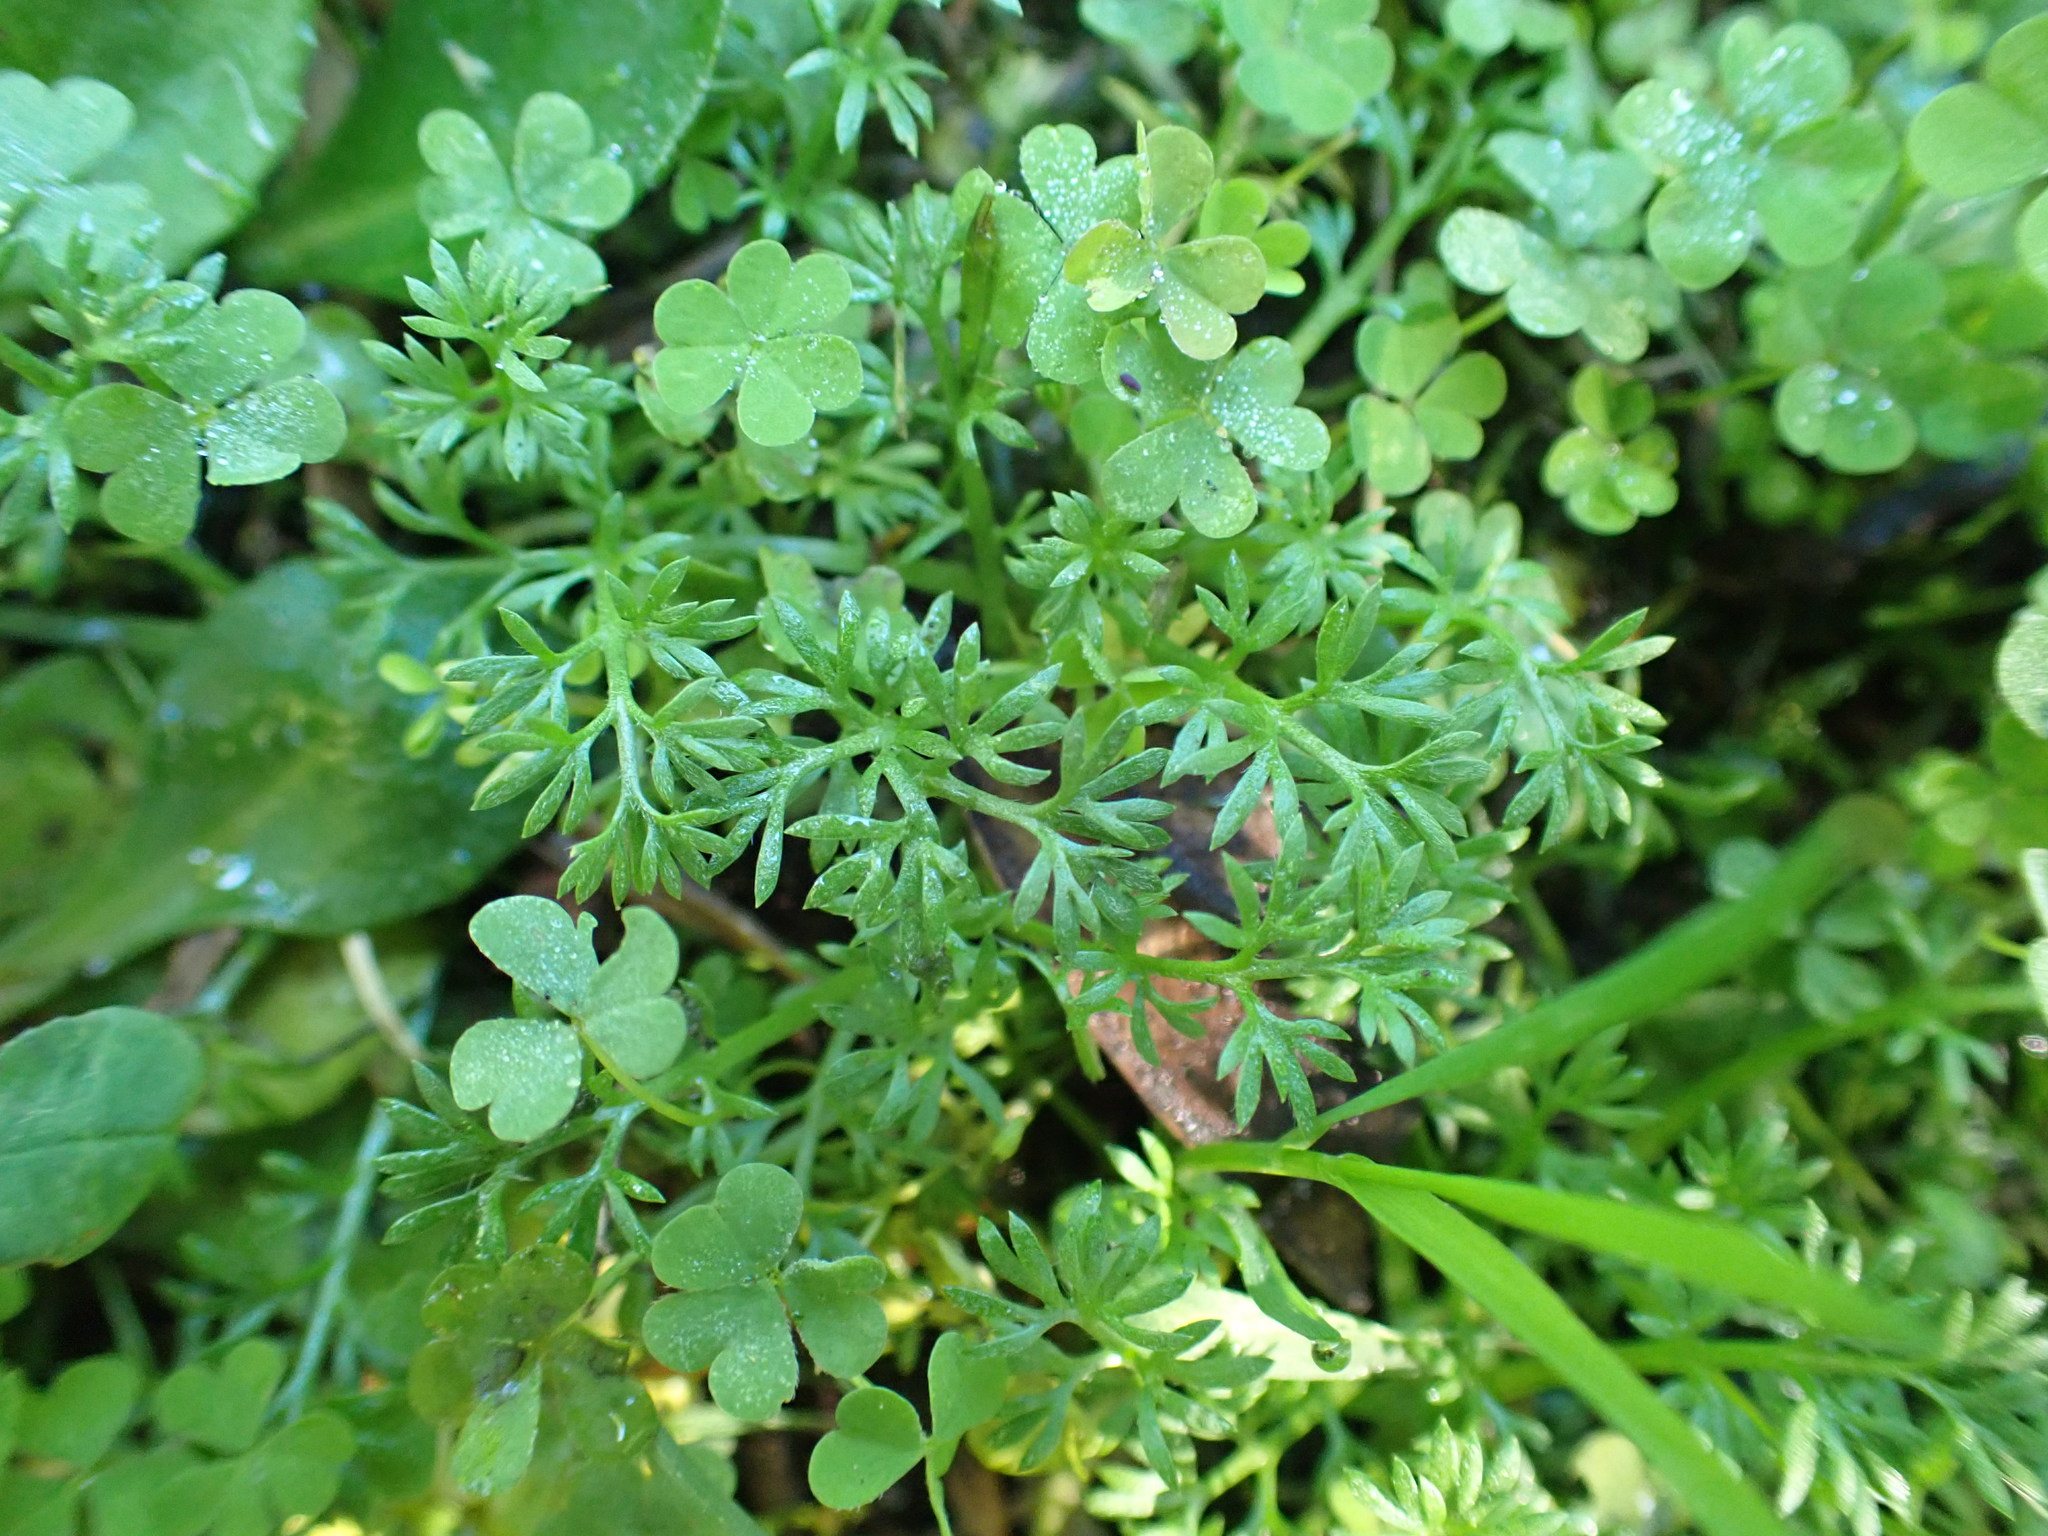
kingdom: Plantae
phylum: Tracheophyta
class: Magnoliopsida
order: Asterales
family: Asteraceae
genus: Soliva
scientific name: Soliva sessilis
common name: Field burrweed
